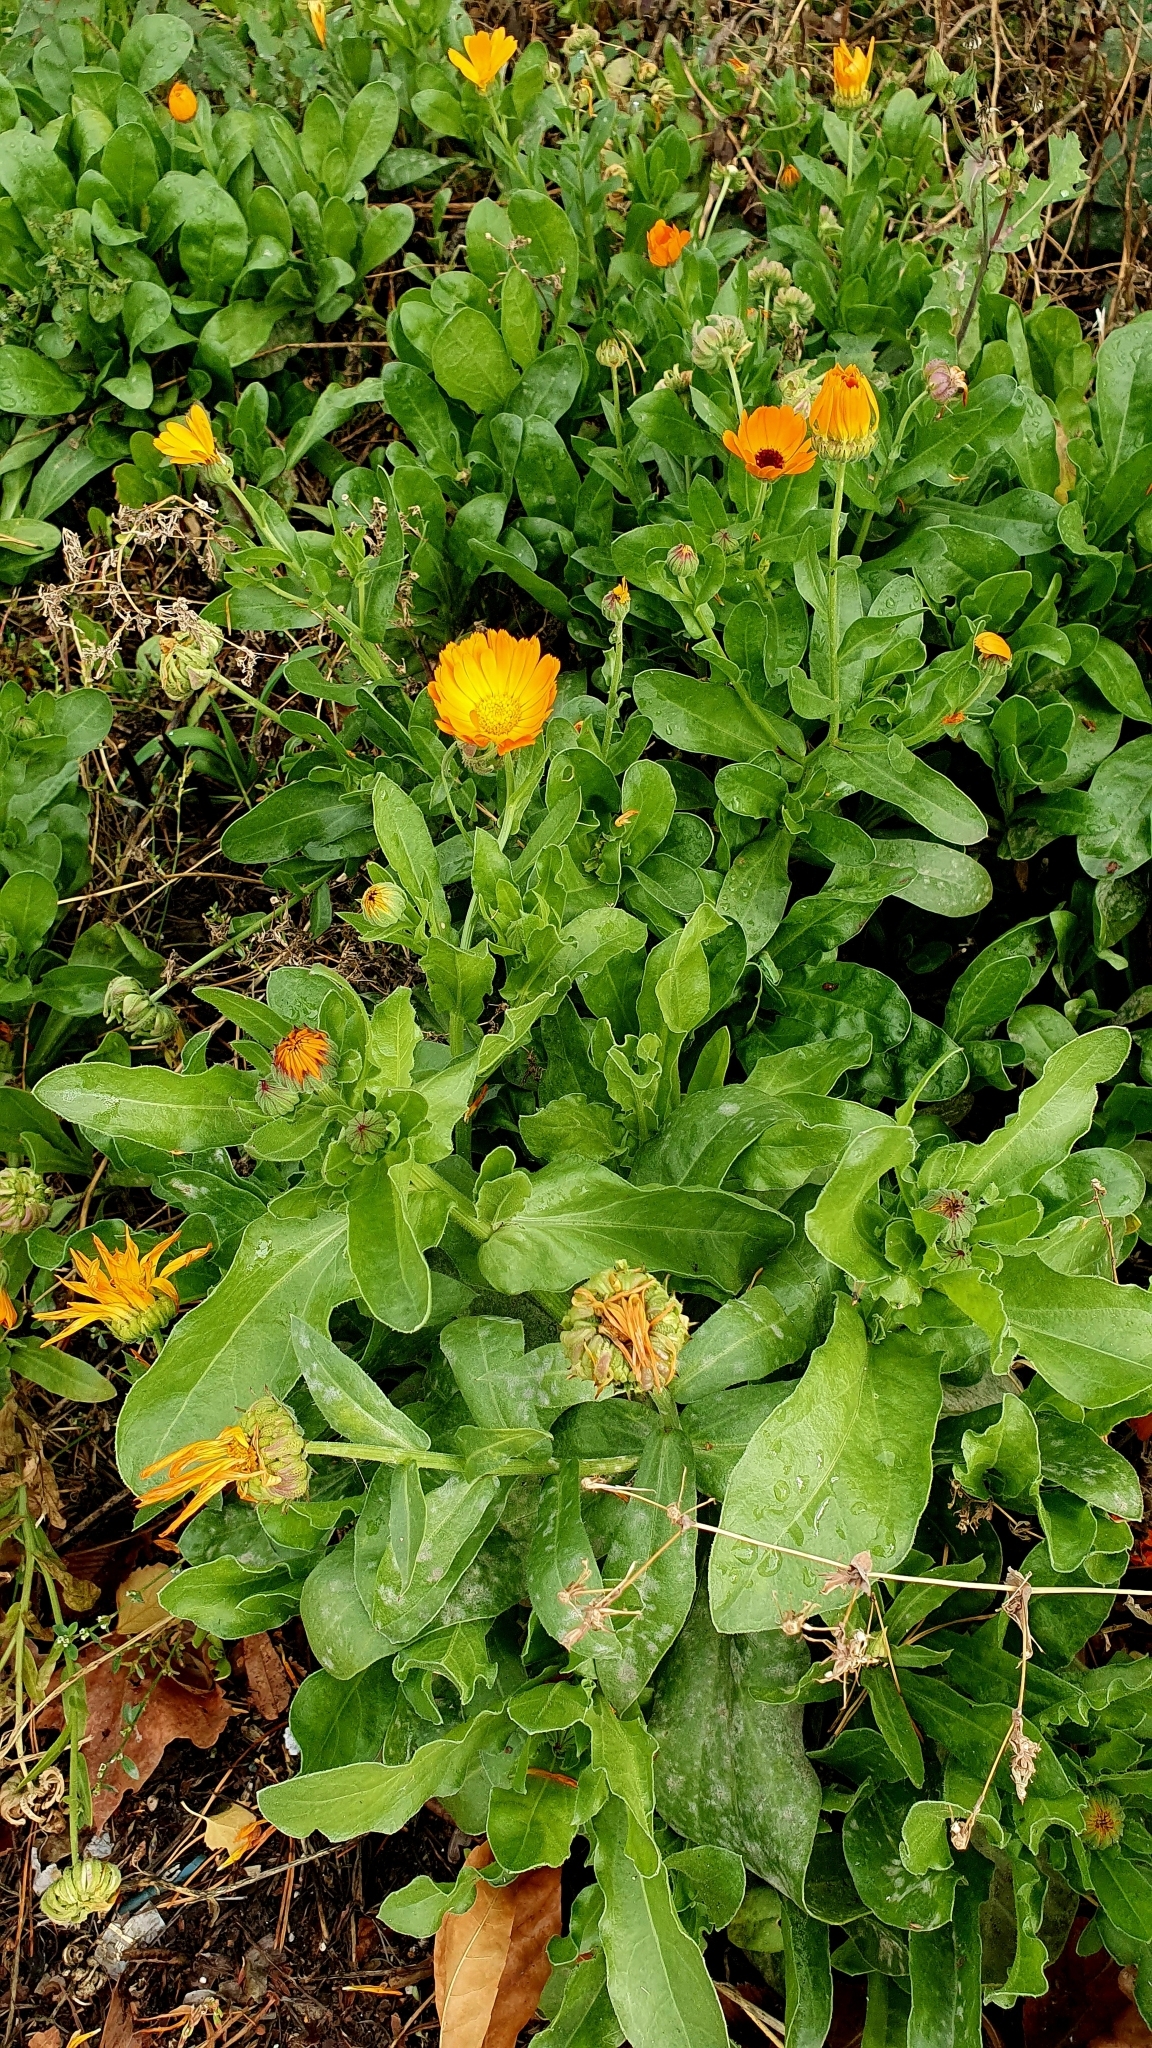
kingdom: Plantae
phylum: Tracheophyta
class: Magnoliopsida
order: Asterales
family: Asteraceae
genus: Calendula
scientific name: Calendula officinalis
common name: Pot marigold
